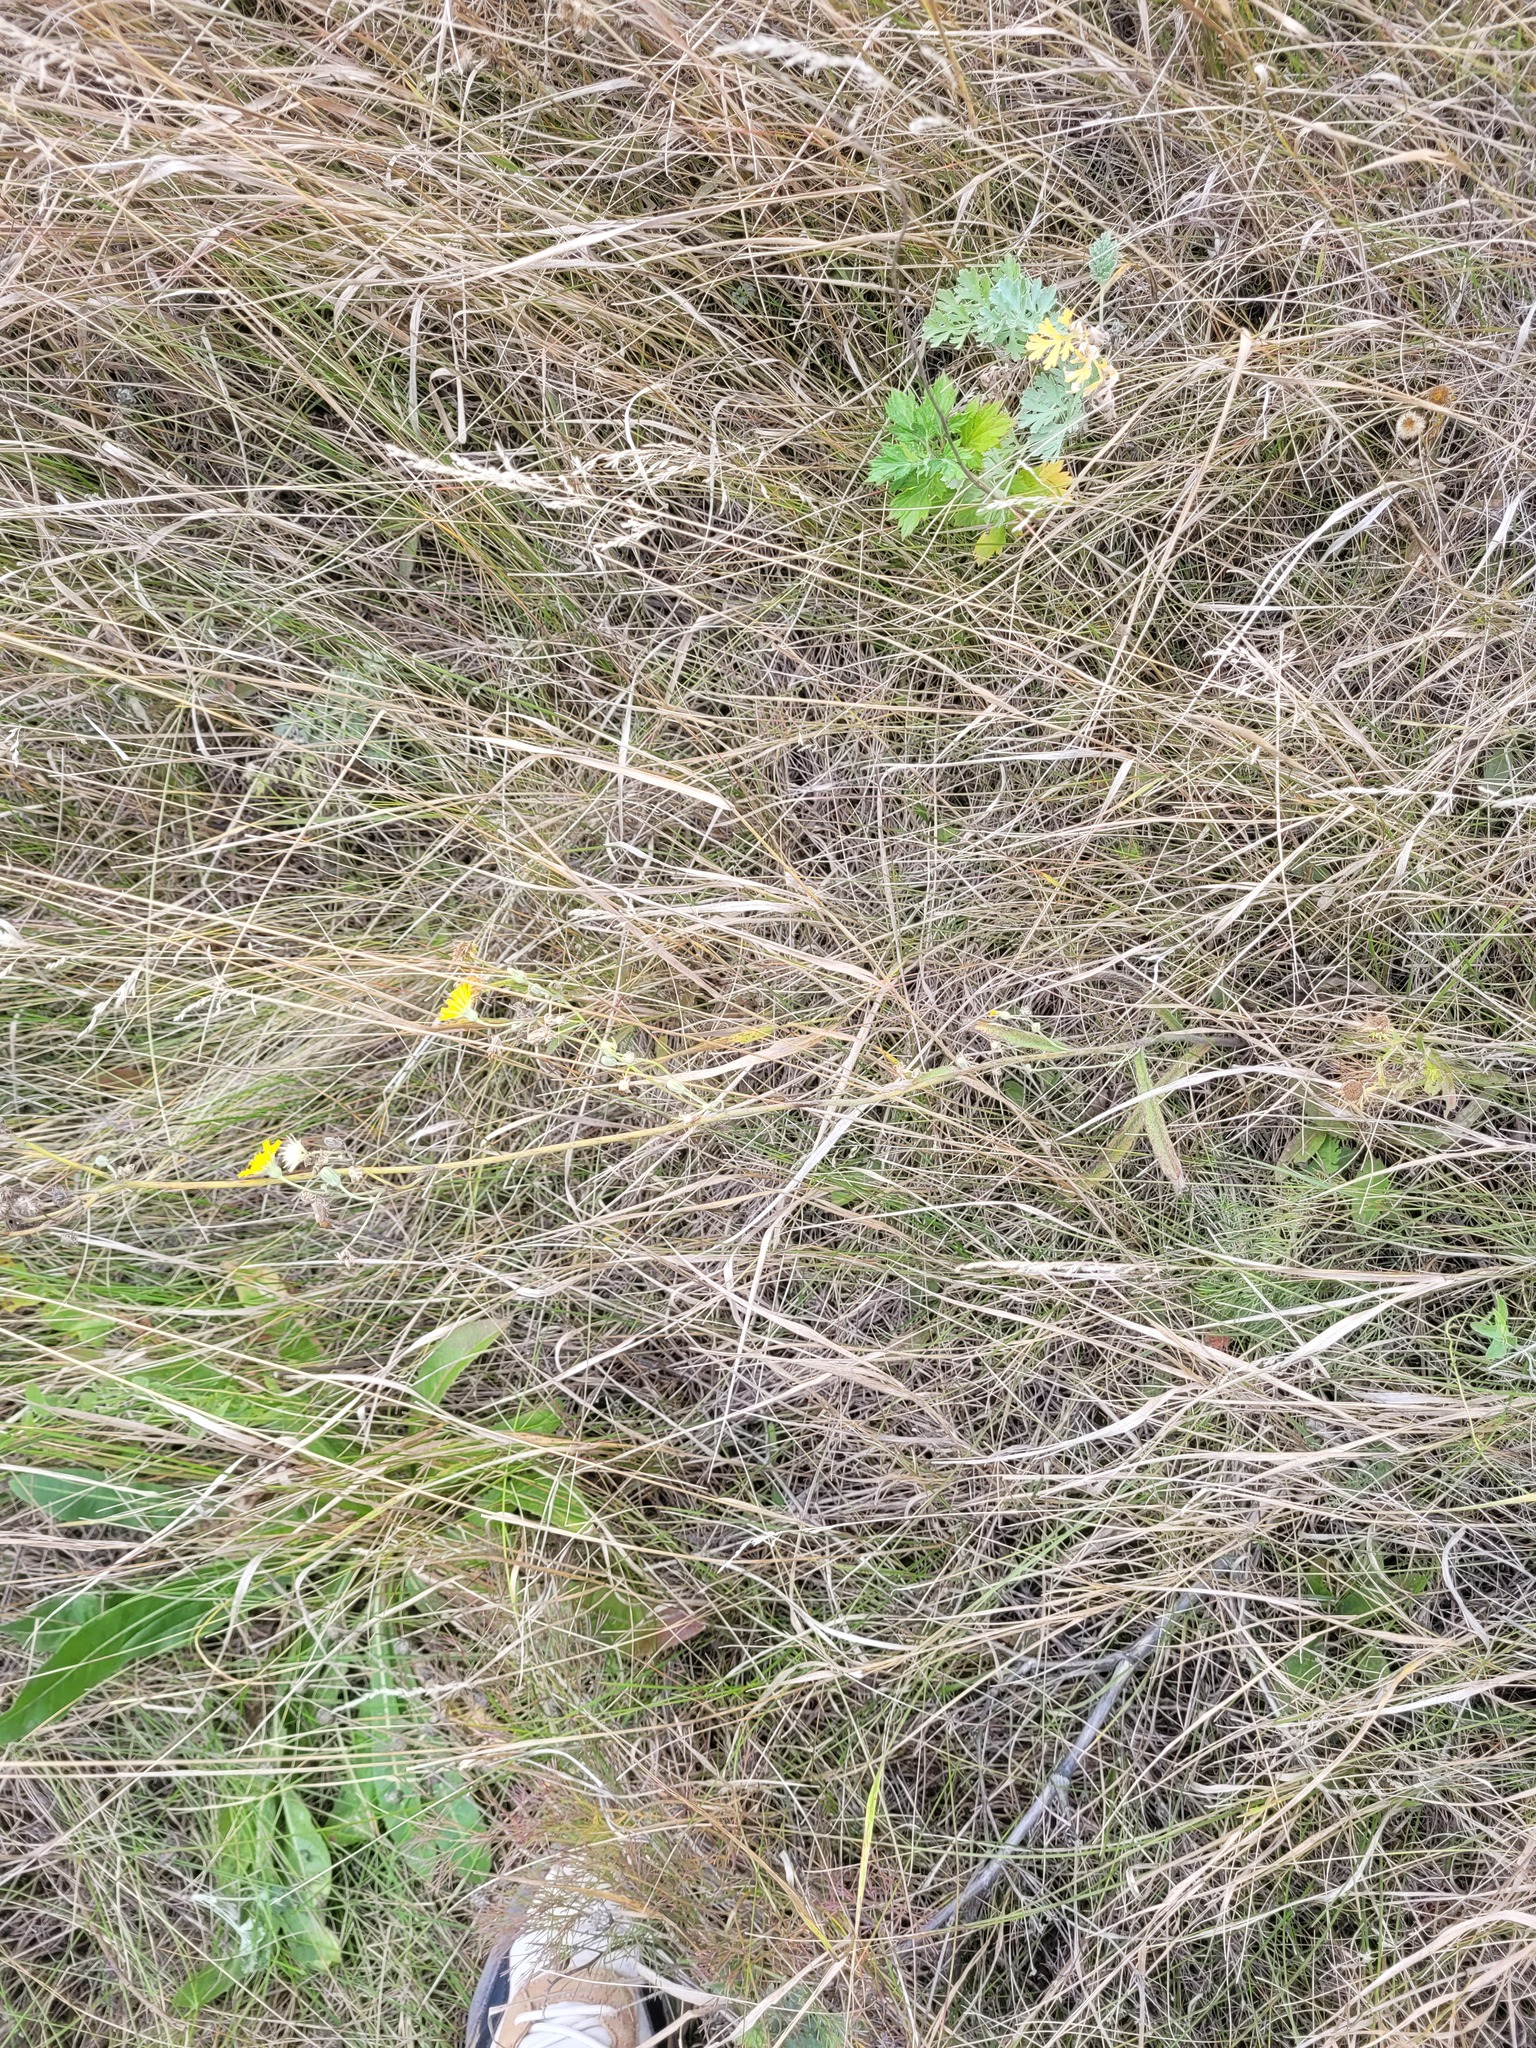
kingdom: Plantae
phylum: Tracheophyta
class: Magnoliopsida
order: Asterales
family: Asteraceae
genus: Pilosella
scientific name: Pilosella echioides
